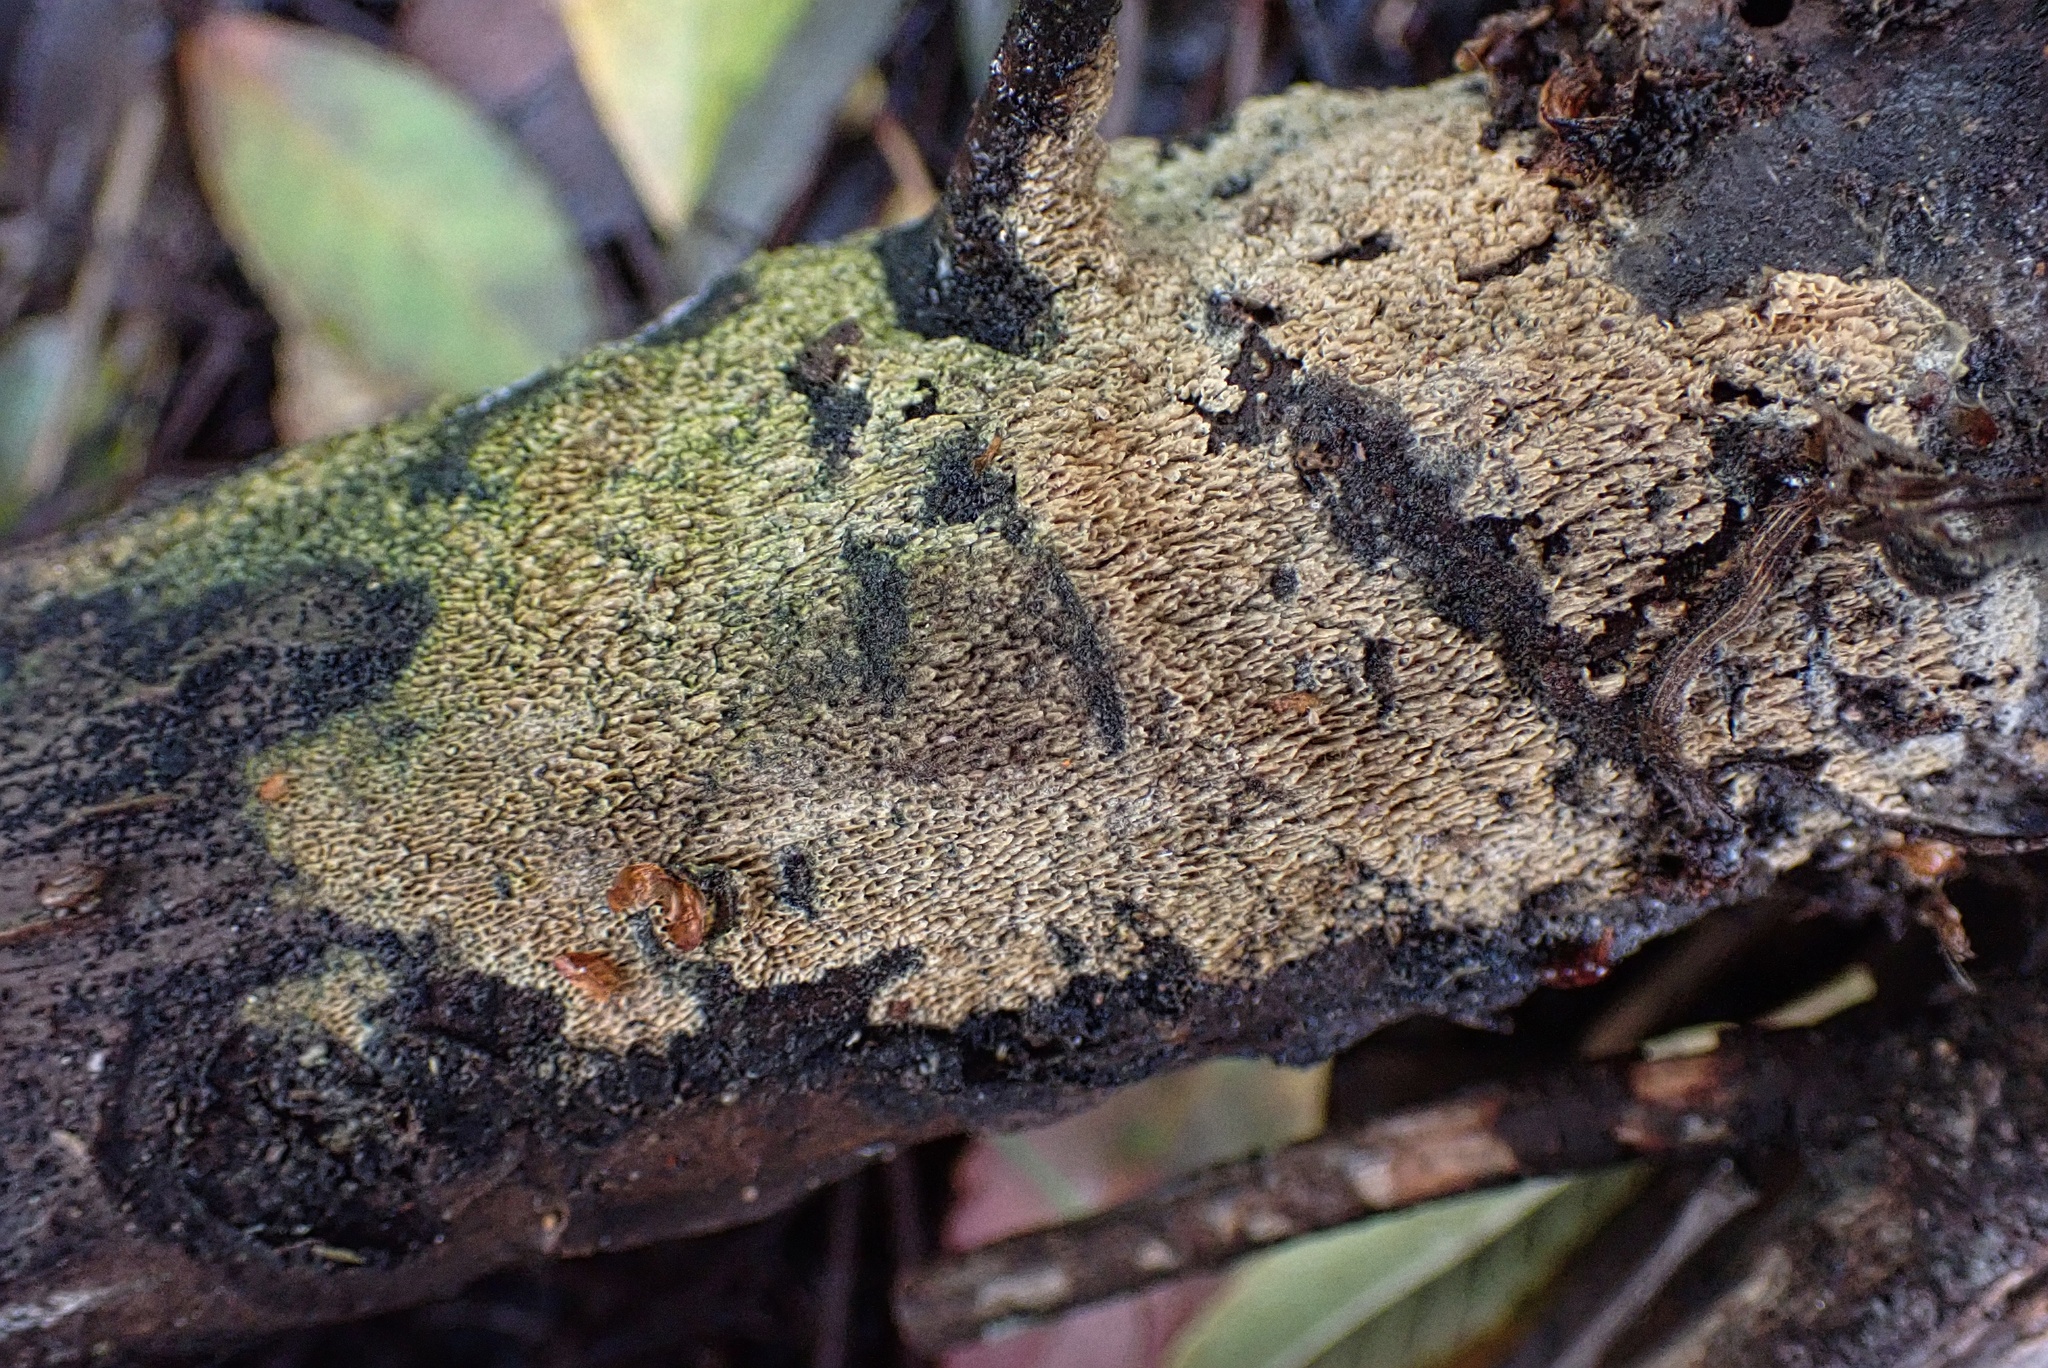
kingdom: Fungi
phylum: Basidiomycota
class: Agaricomycetes
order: Hymenochaetales
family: Schizoporaceae
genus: Schizopora
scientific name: Schizopora paradoxa
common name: Split porecrust
